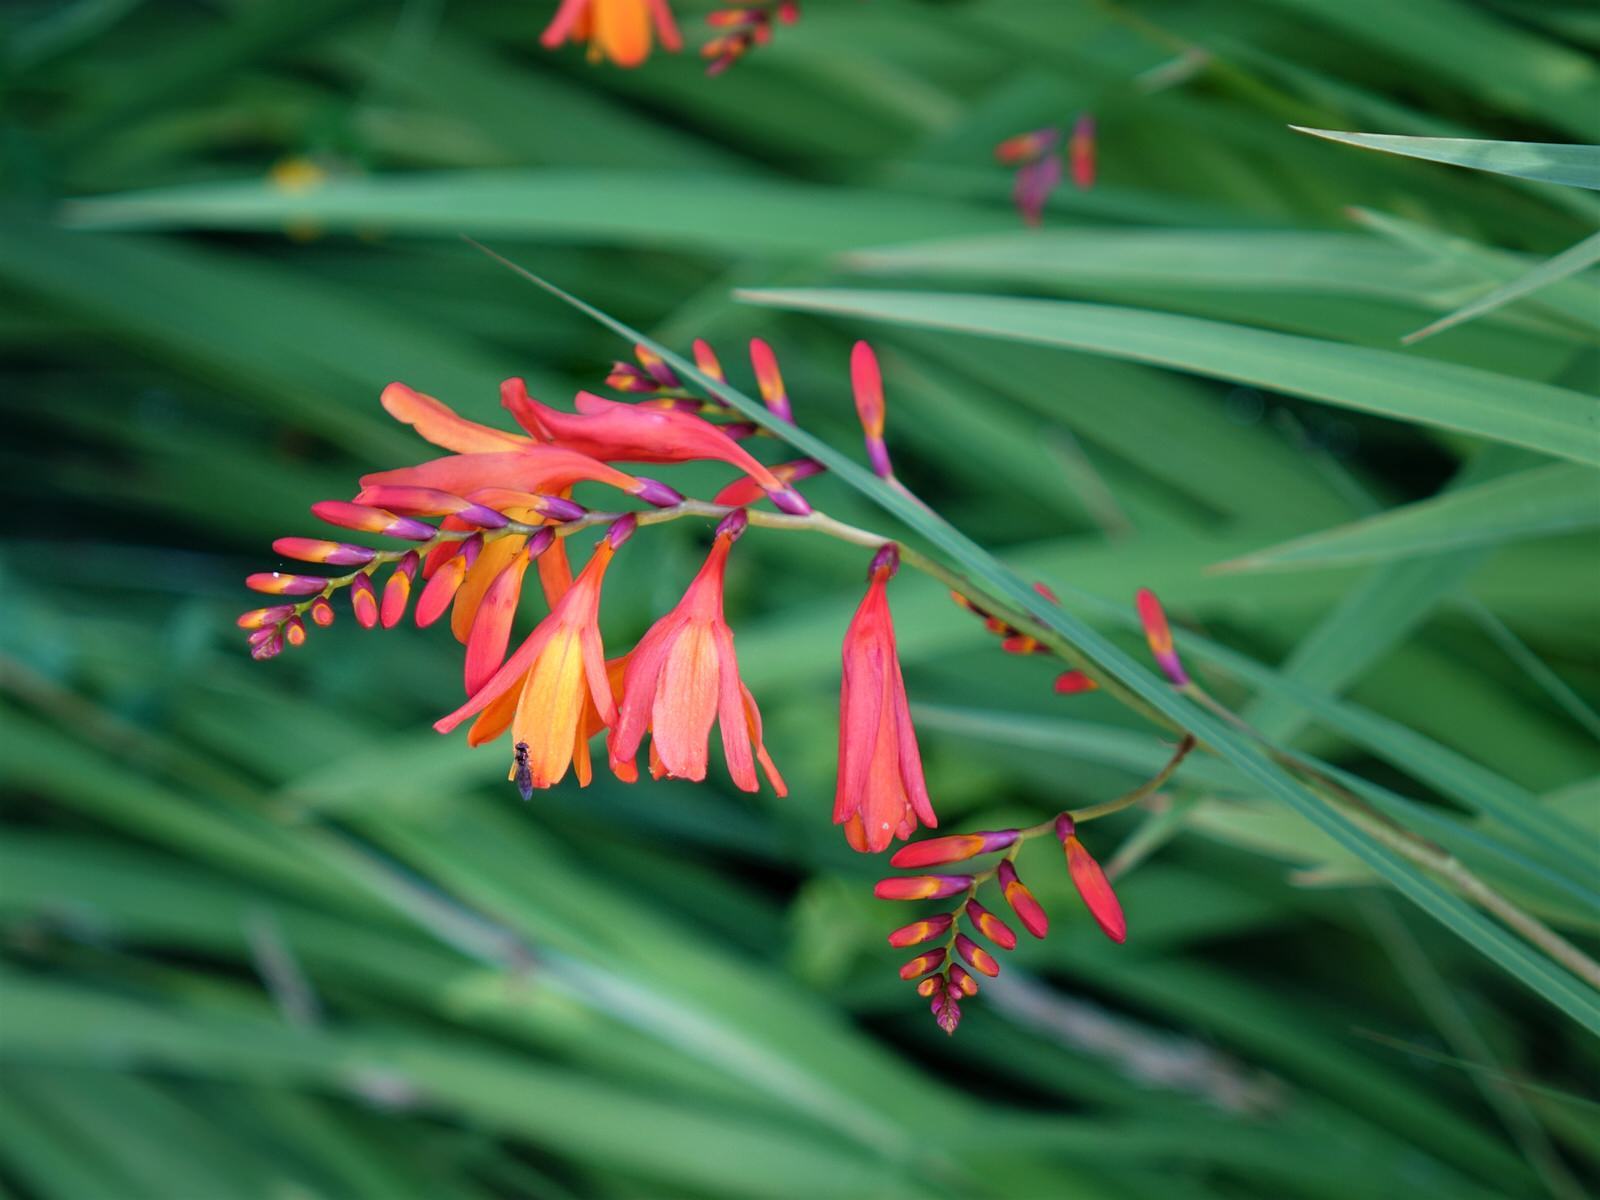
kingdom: Plantae
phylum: Tracheophyta
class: Liliopsida
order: Asparagales
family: Iridaceae
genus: Crocosmia
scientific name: Crocosmia crocosmiiflora
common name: Montbretia
